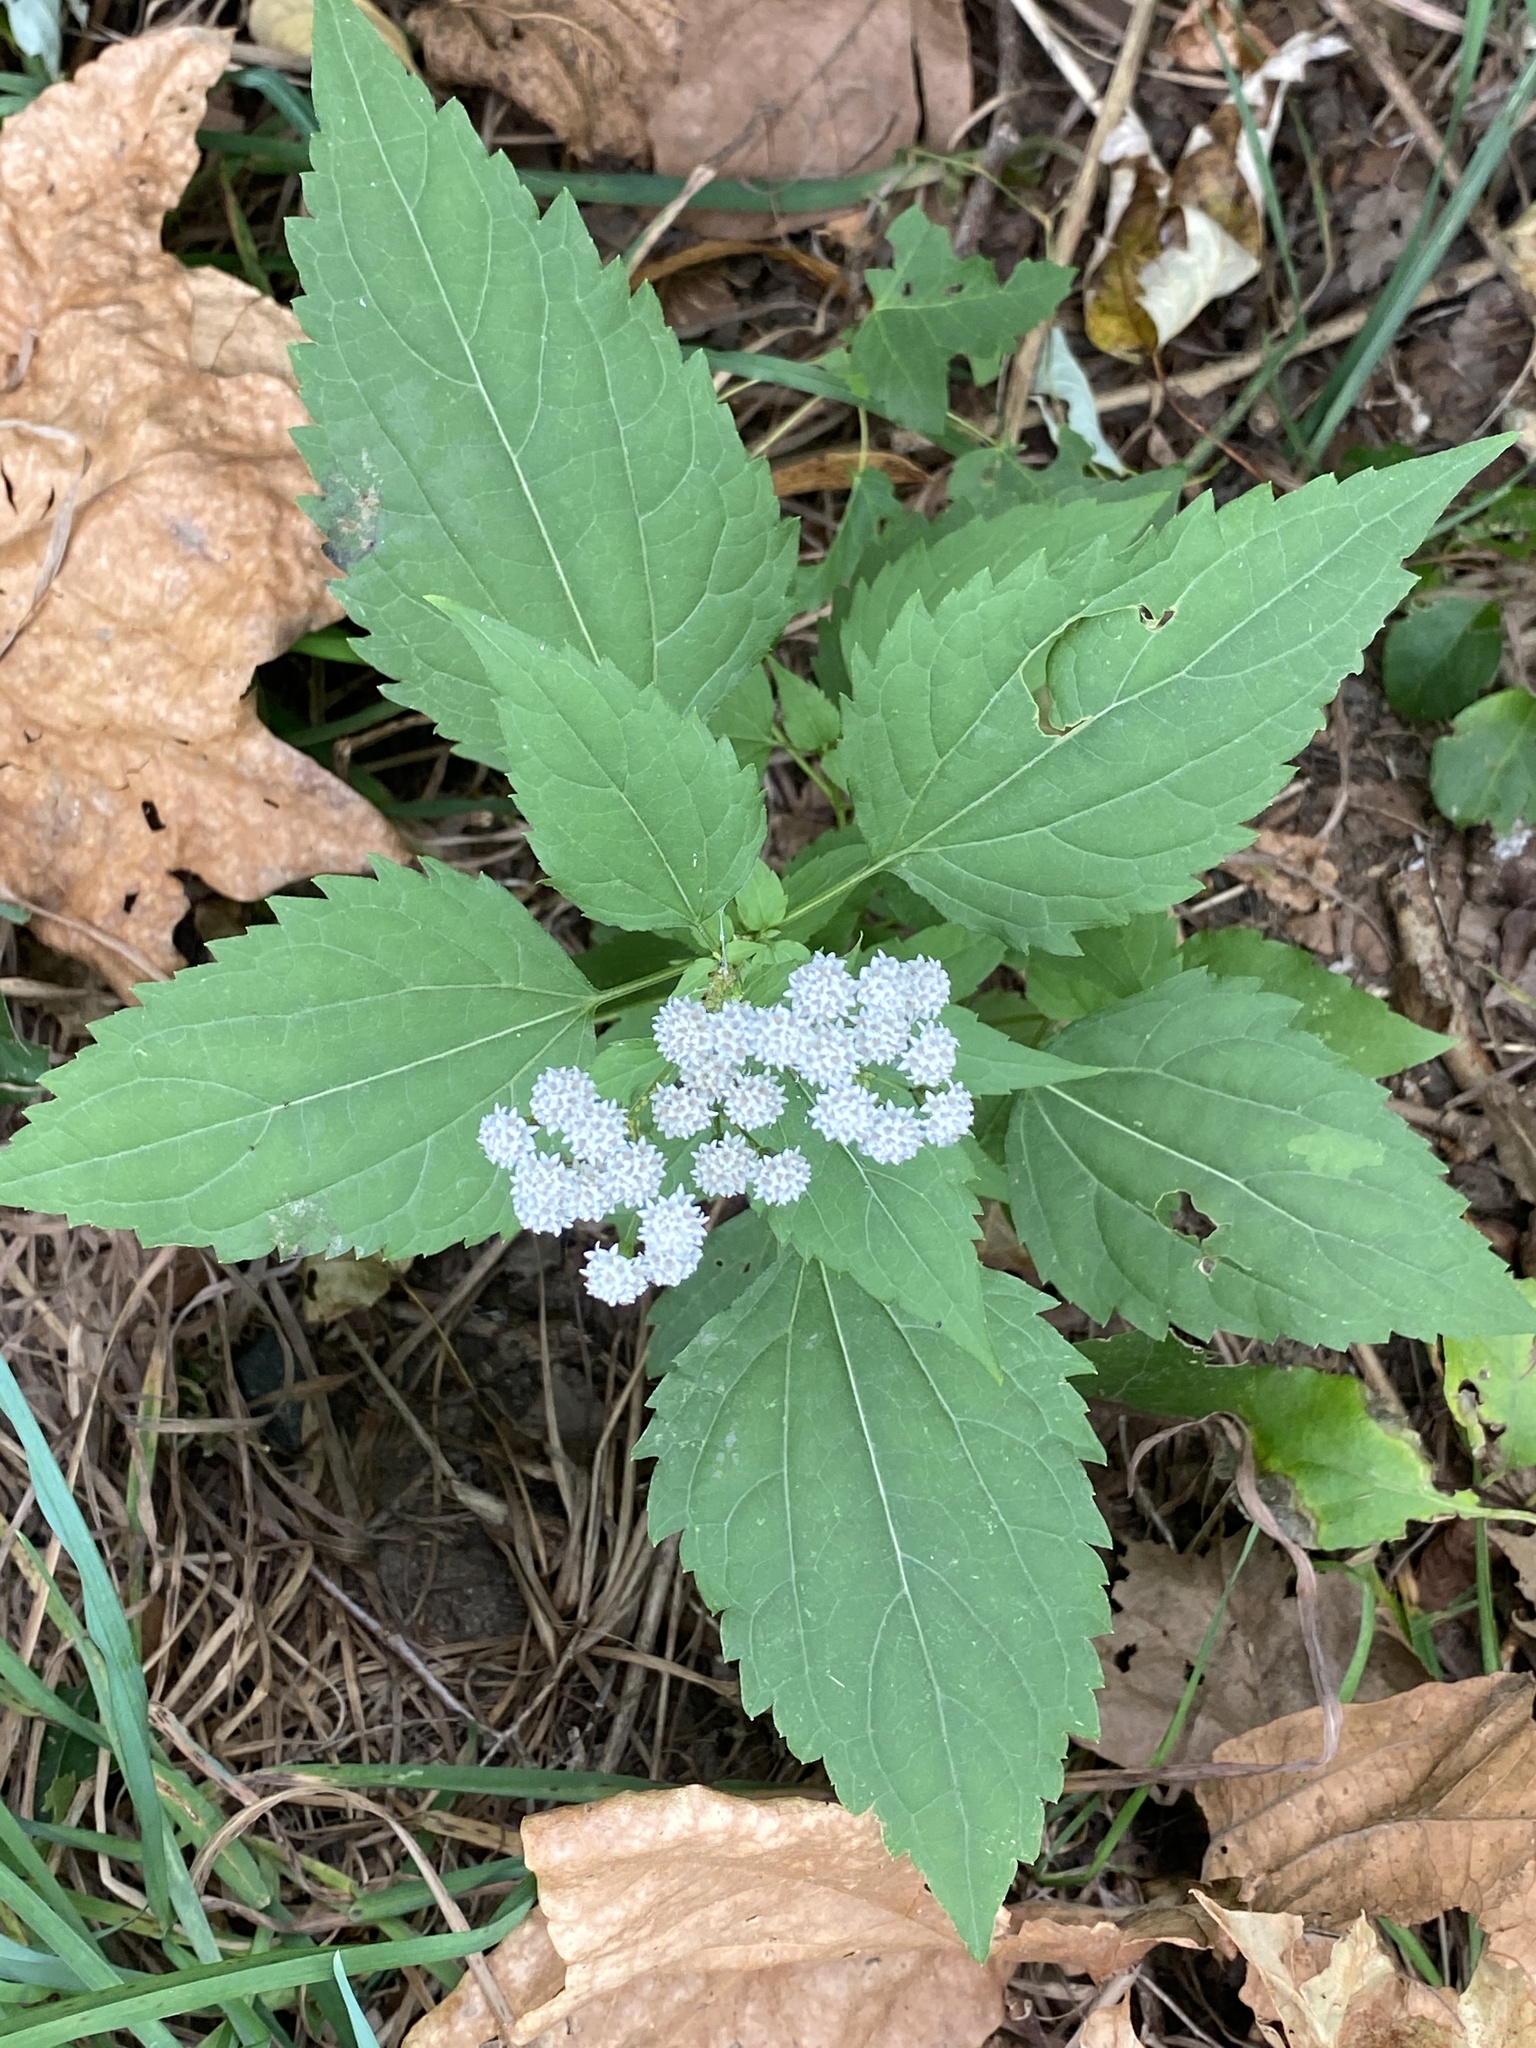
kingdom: Plantae
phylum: Tracheophyta
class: Magnoliopsida
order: Asterales
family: Asteraceae
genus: Ageratina
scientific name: Ageratina altissima
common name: White snakeroot
